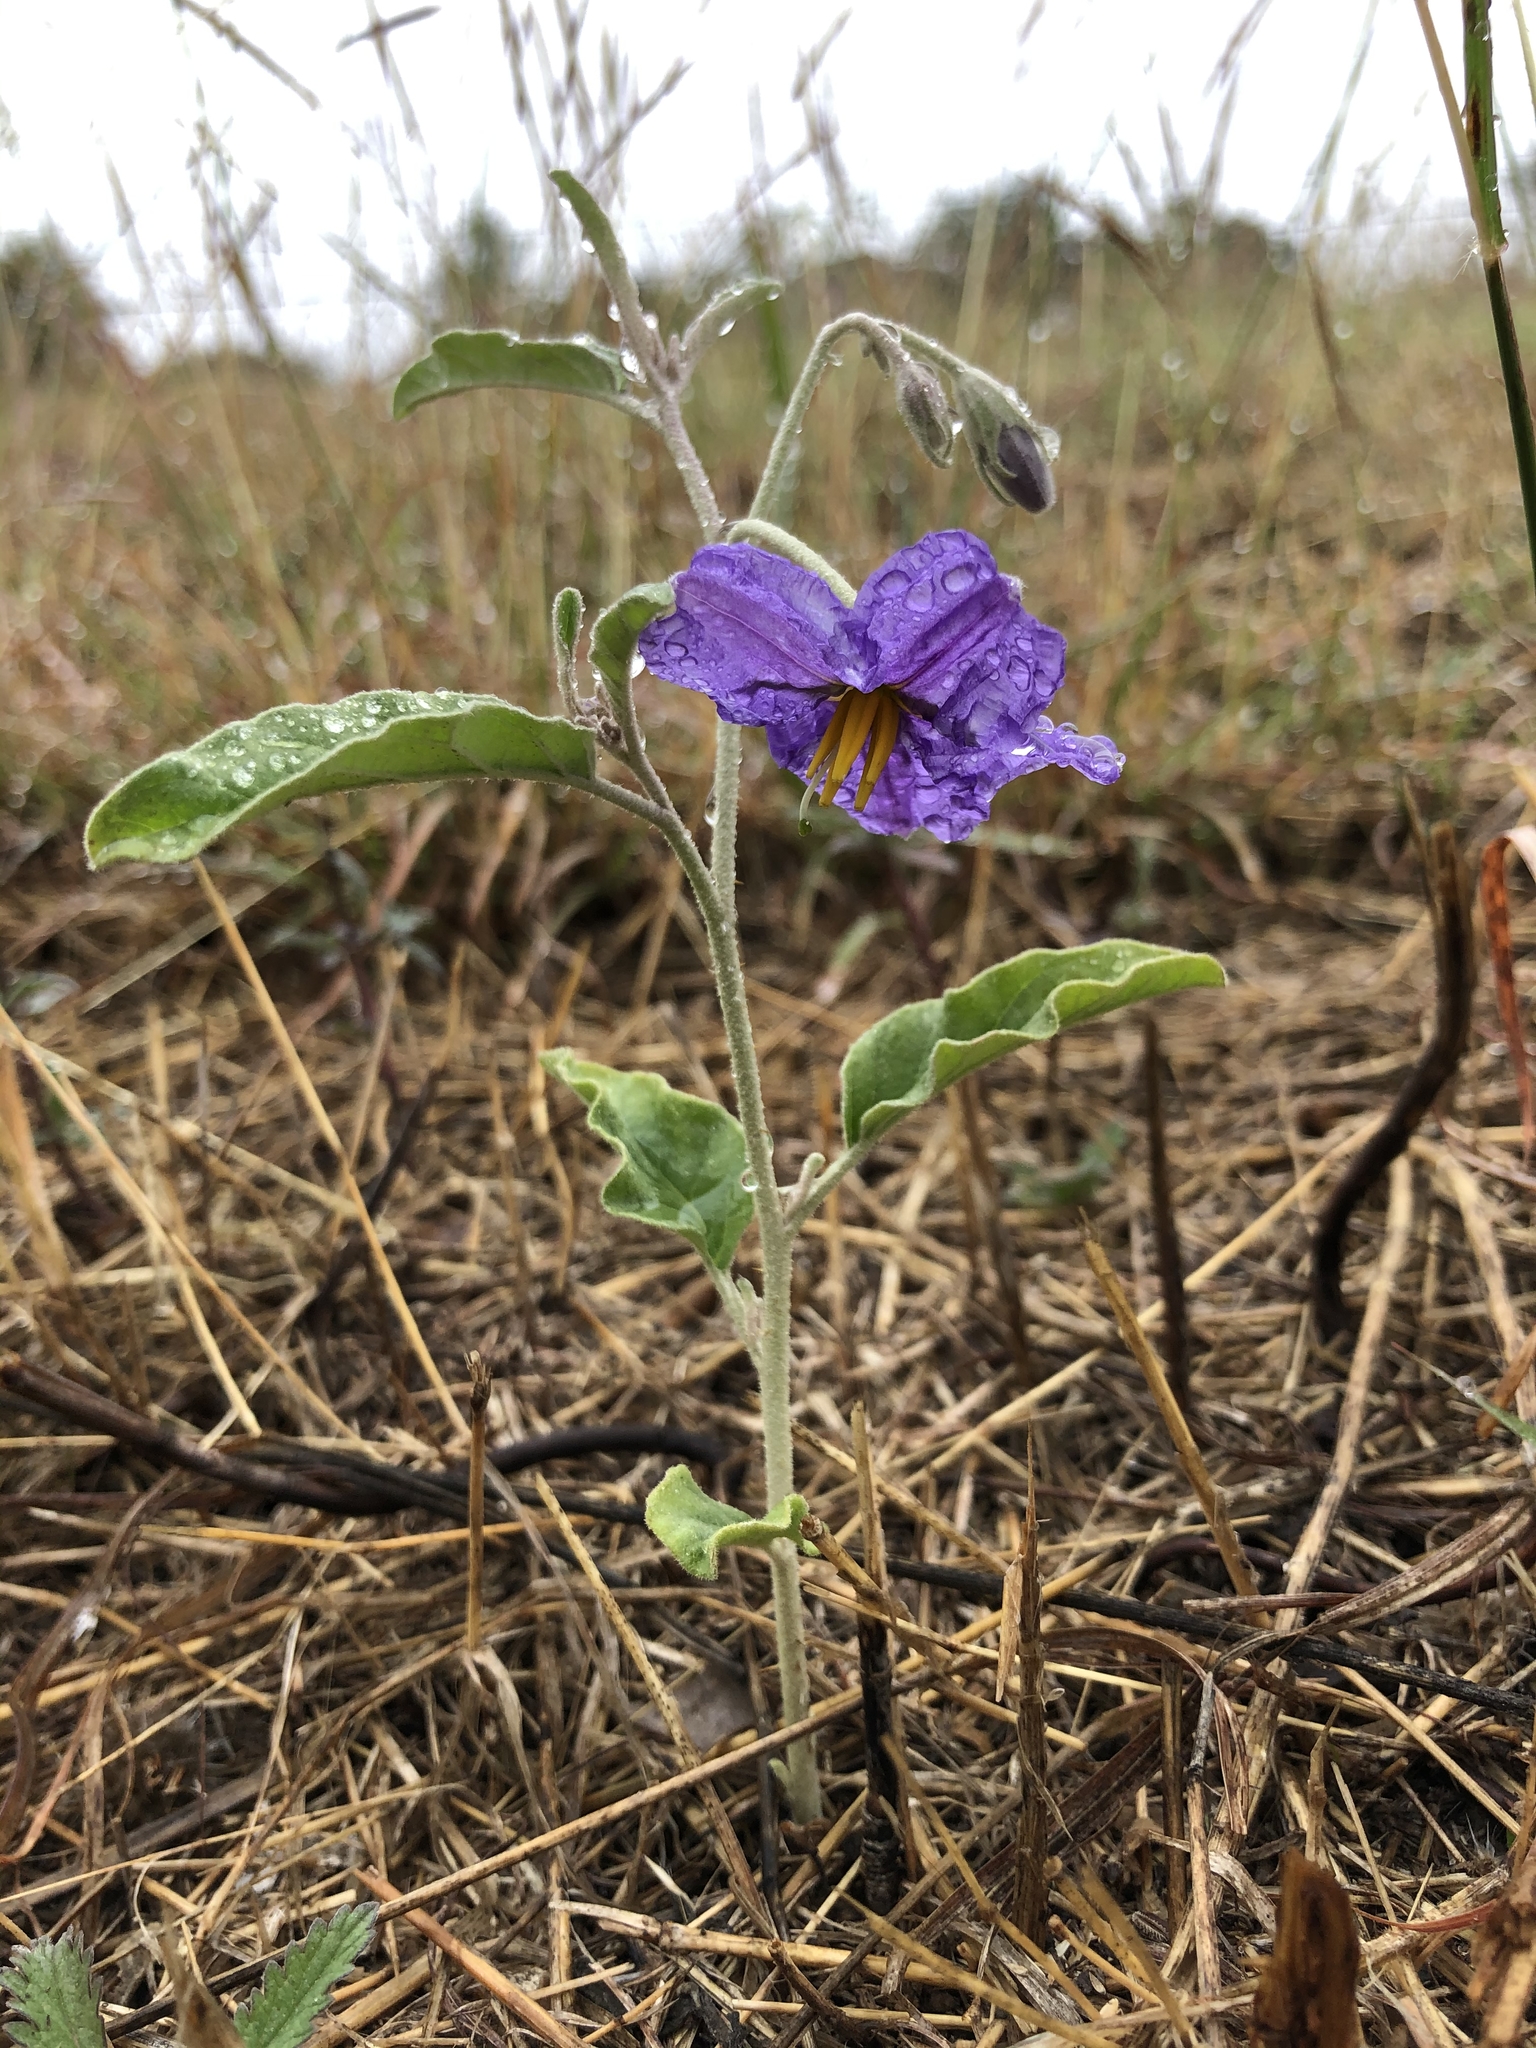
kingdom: Plantae
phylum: Tracheophyta
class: Magnoliopsida
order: Solanales
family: Solanaceae
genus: Solanum
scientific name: Solanum elaeagnifolium
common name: Silverleaf nightshade
